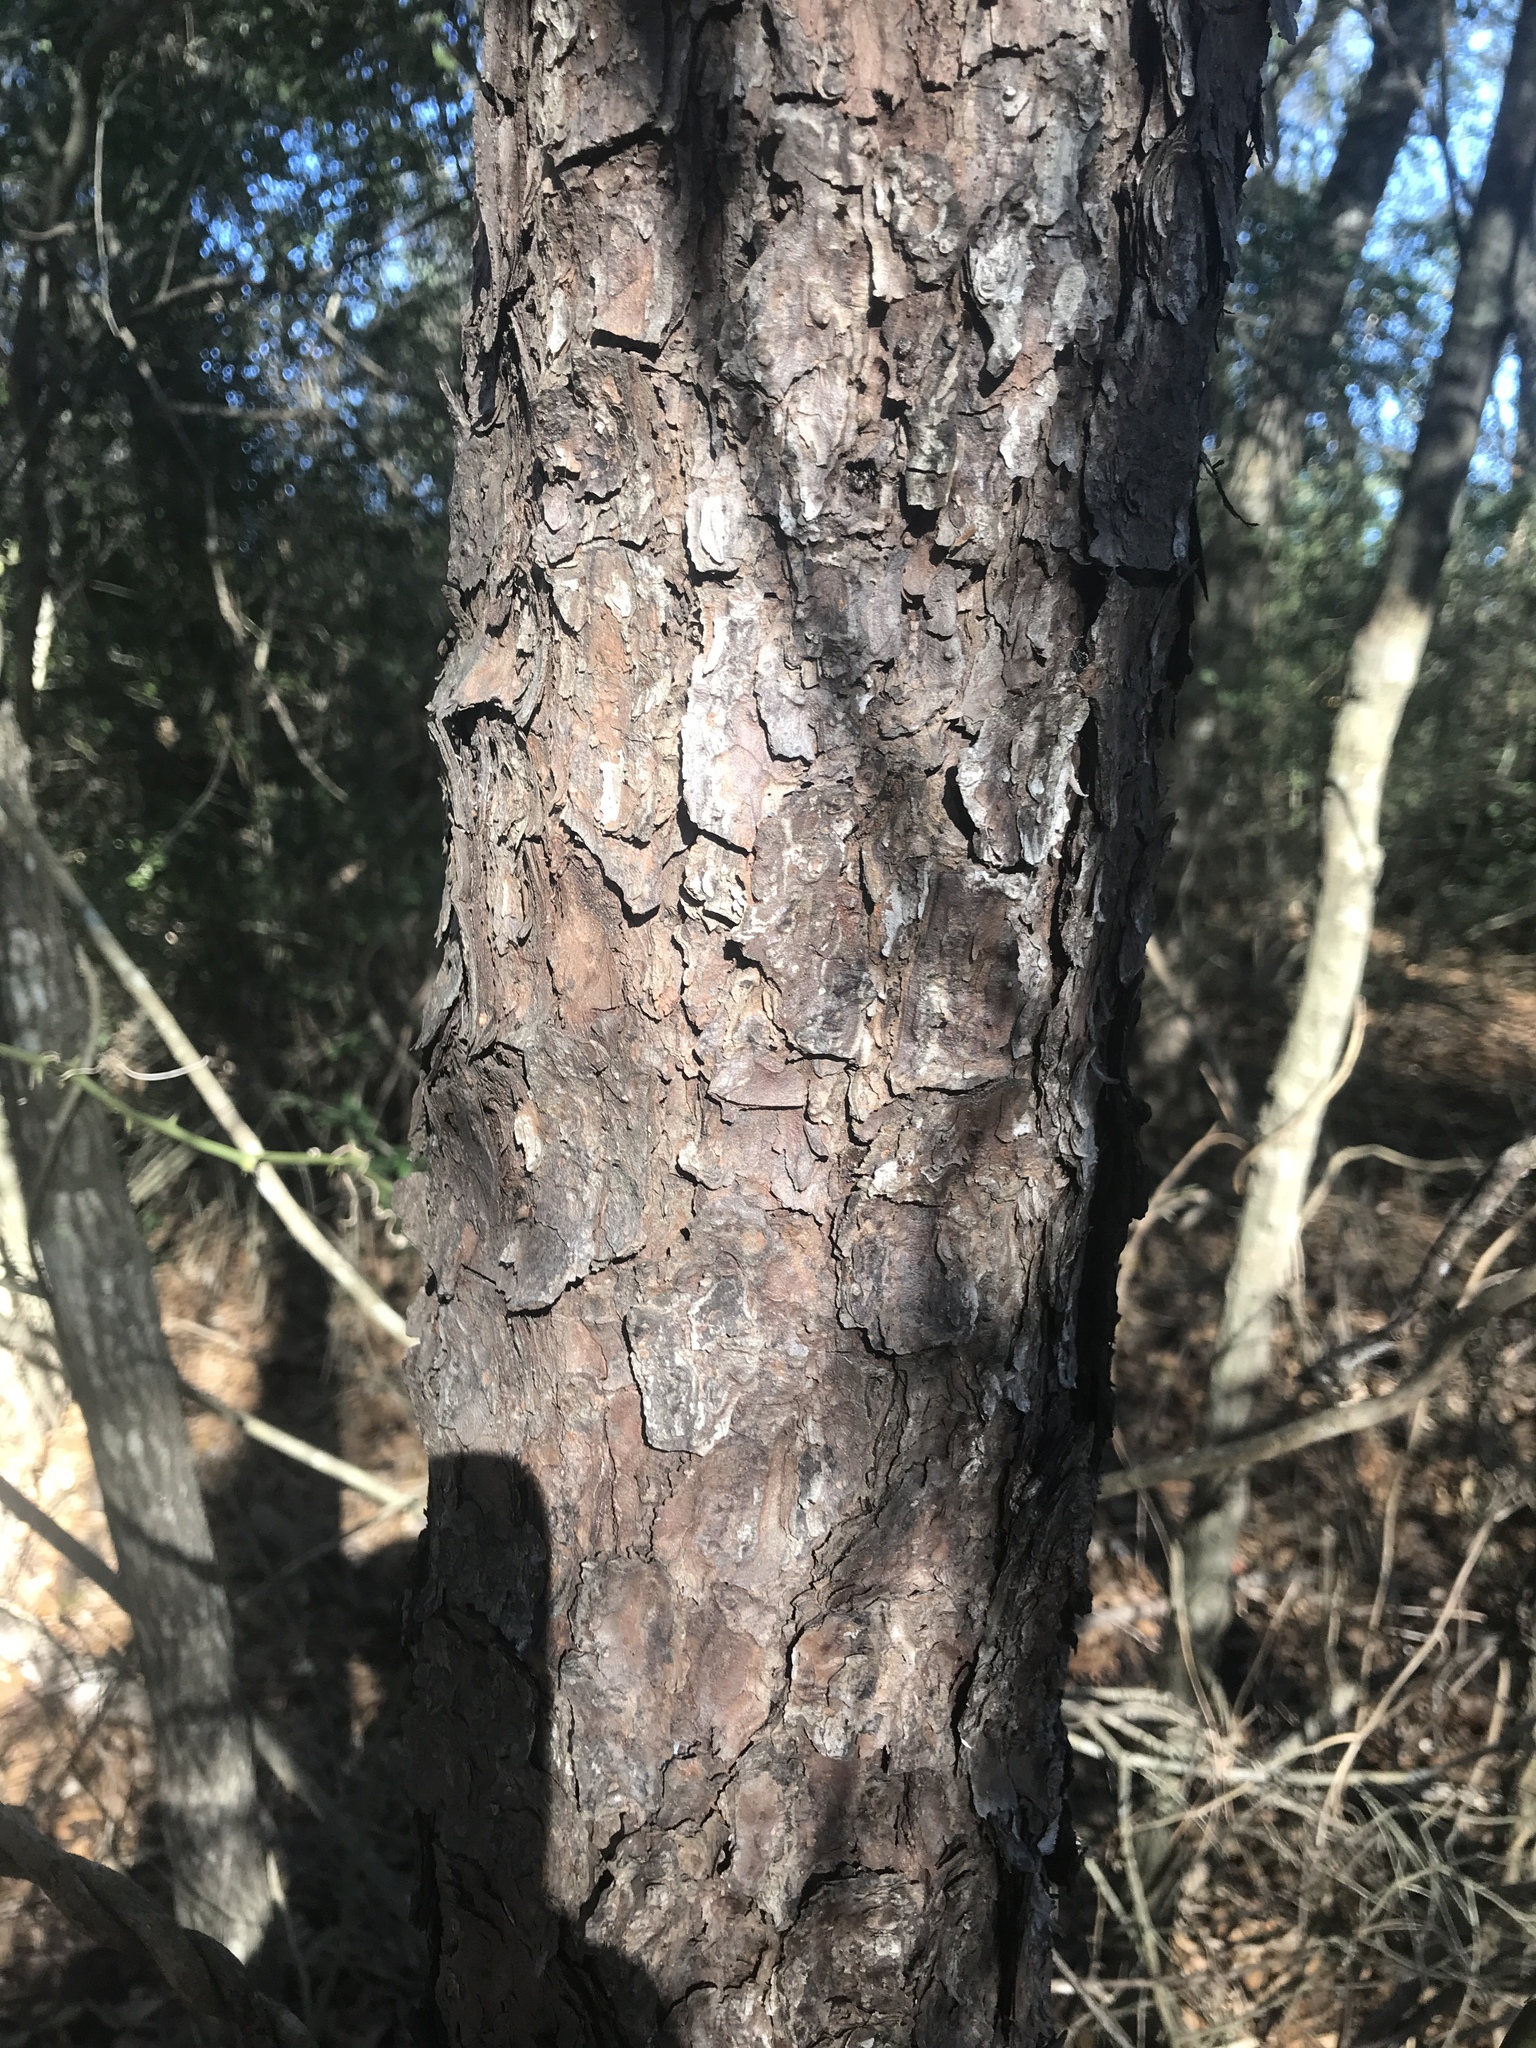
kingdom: Plantae
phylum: Tracheophyta
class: Pinopsida
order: Pinales
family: Pinaceae
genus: Pinus
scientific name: Pinus taeda
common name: Loblolly pine
